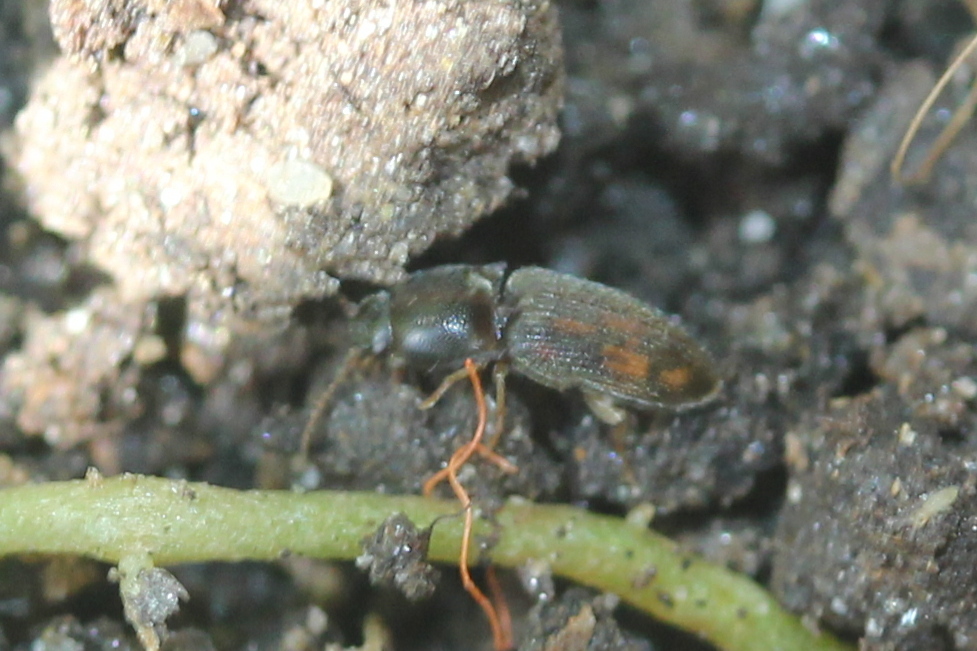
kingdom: Animalia
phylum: Arthropoda
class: Insecta
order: Coleoptera
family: Elateridae
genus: Monocrepidius
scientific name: Monocrepidius bellus
